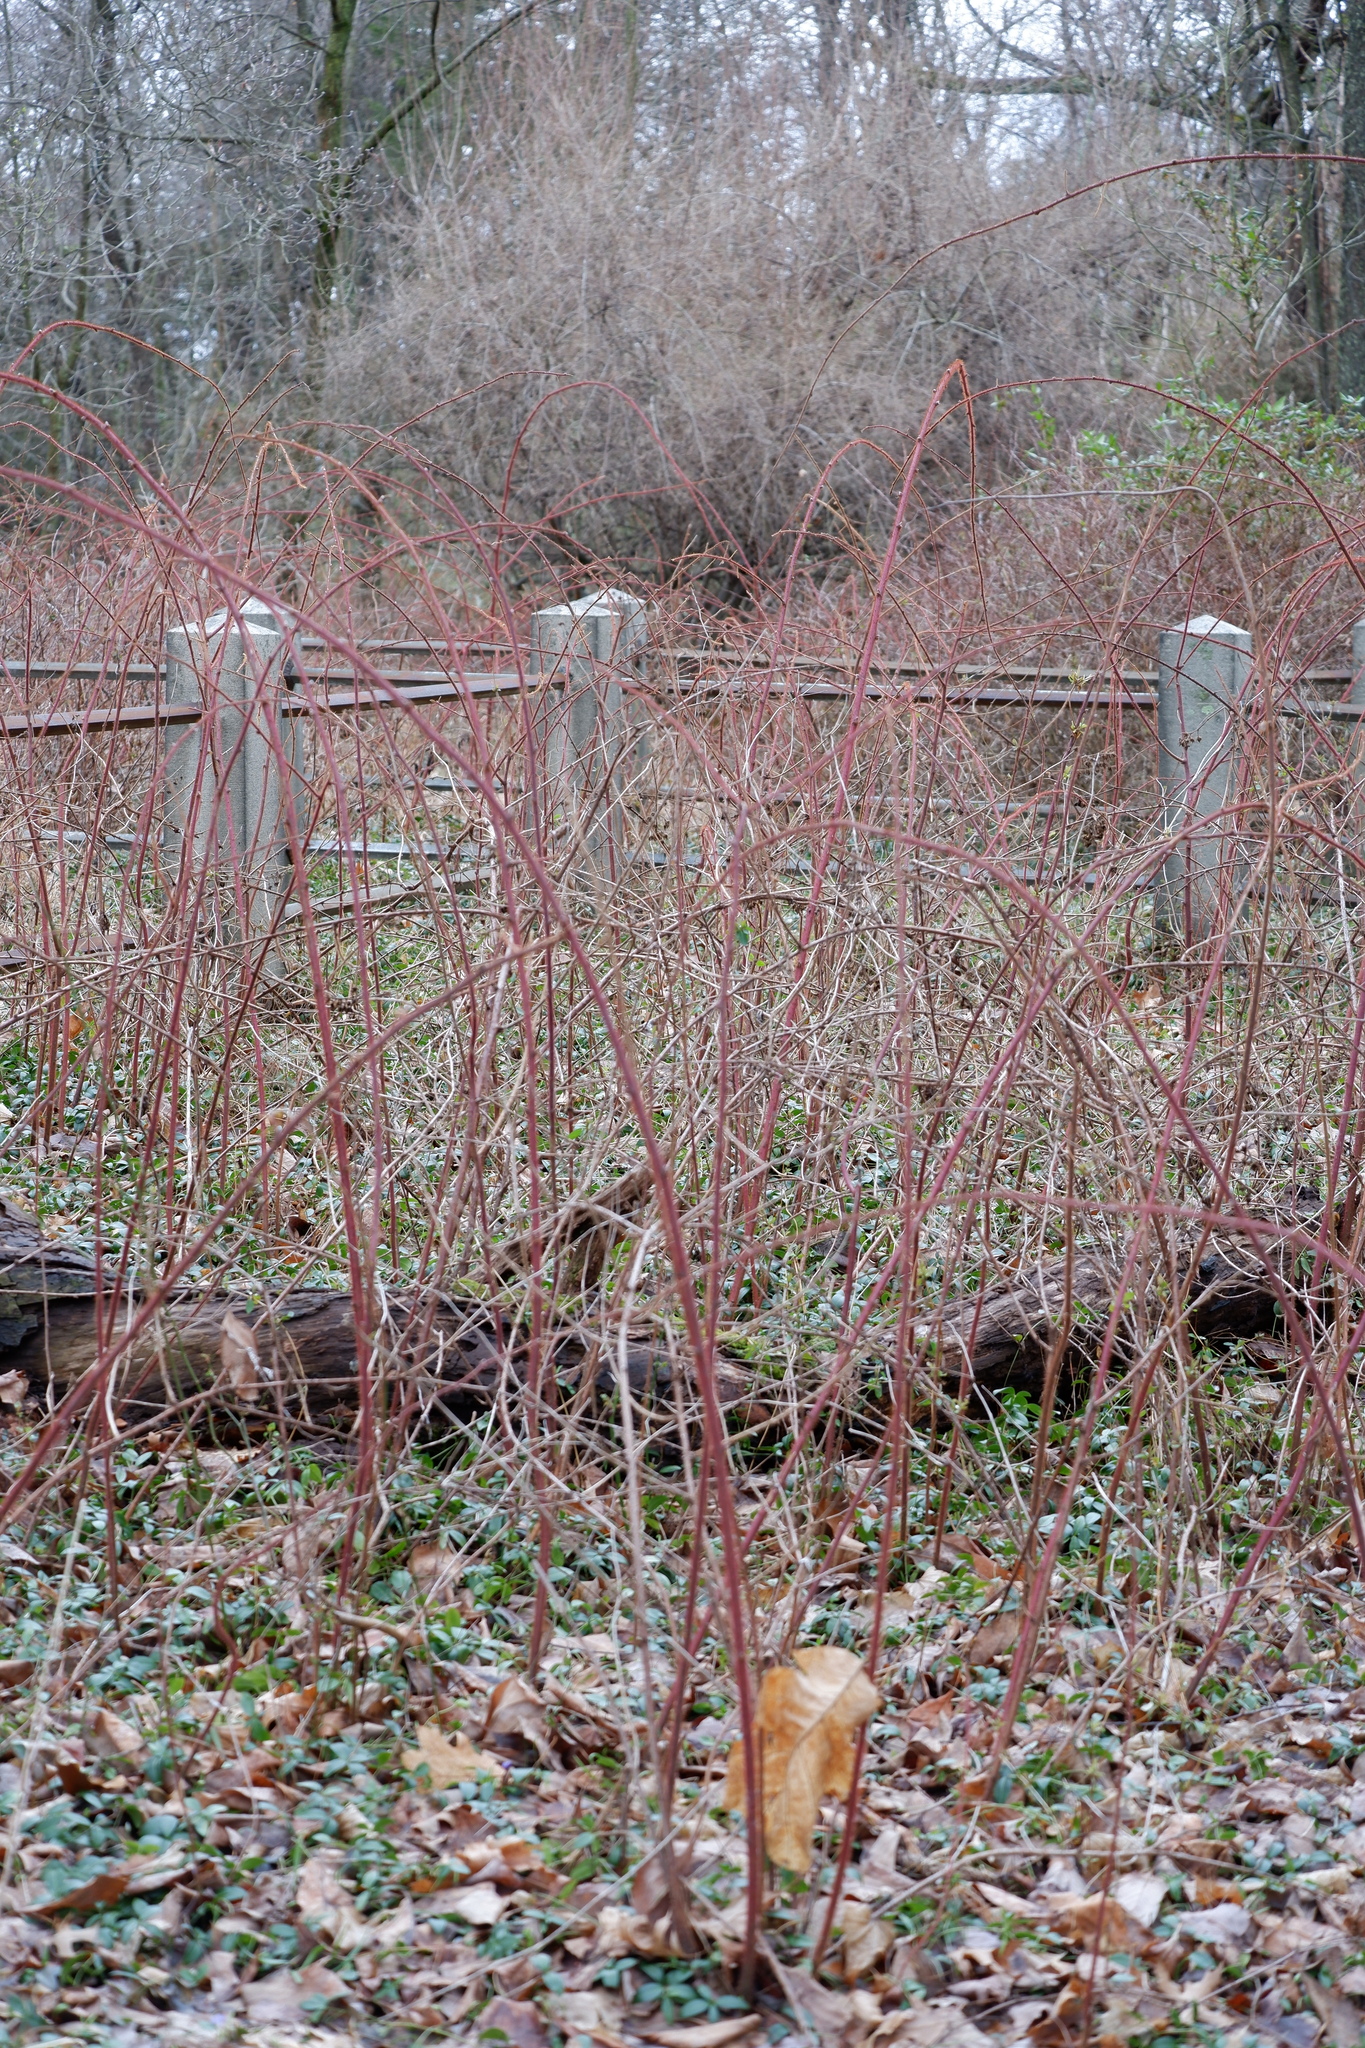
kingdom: Plantae
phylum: Tracheophyta
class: Magnoliopsida
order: Rosales
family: Rosaceae
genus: Rubus
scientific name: Rubus phoenicolasius
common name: Japanese wineberry
